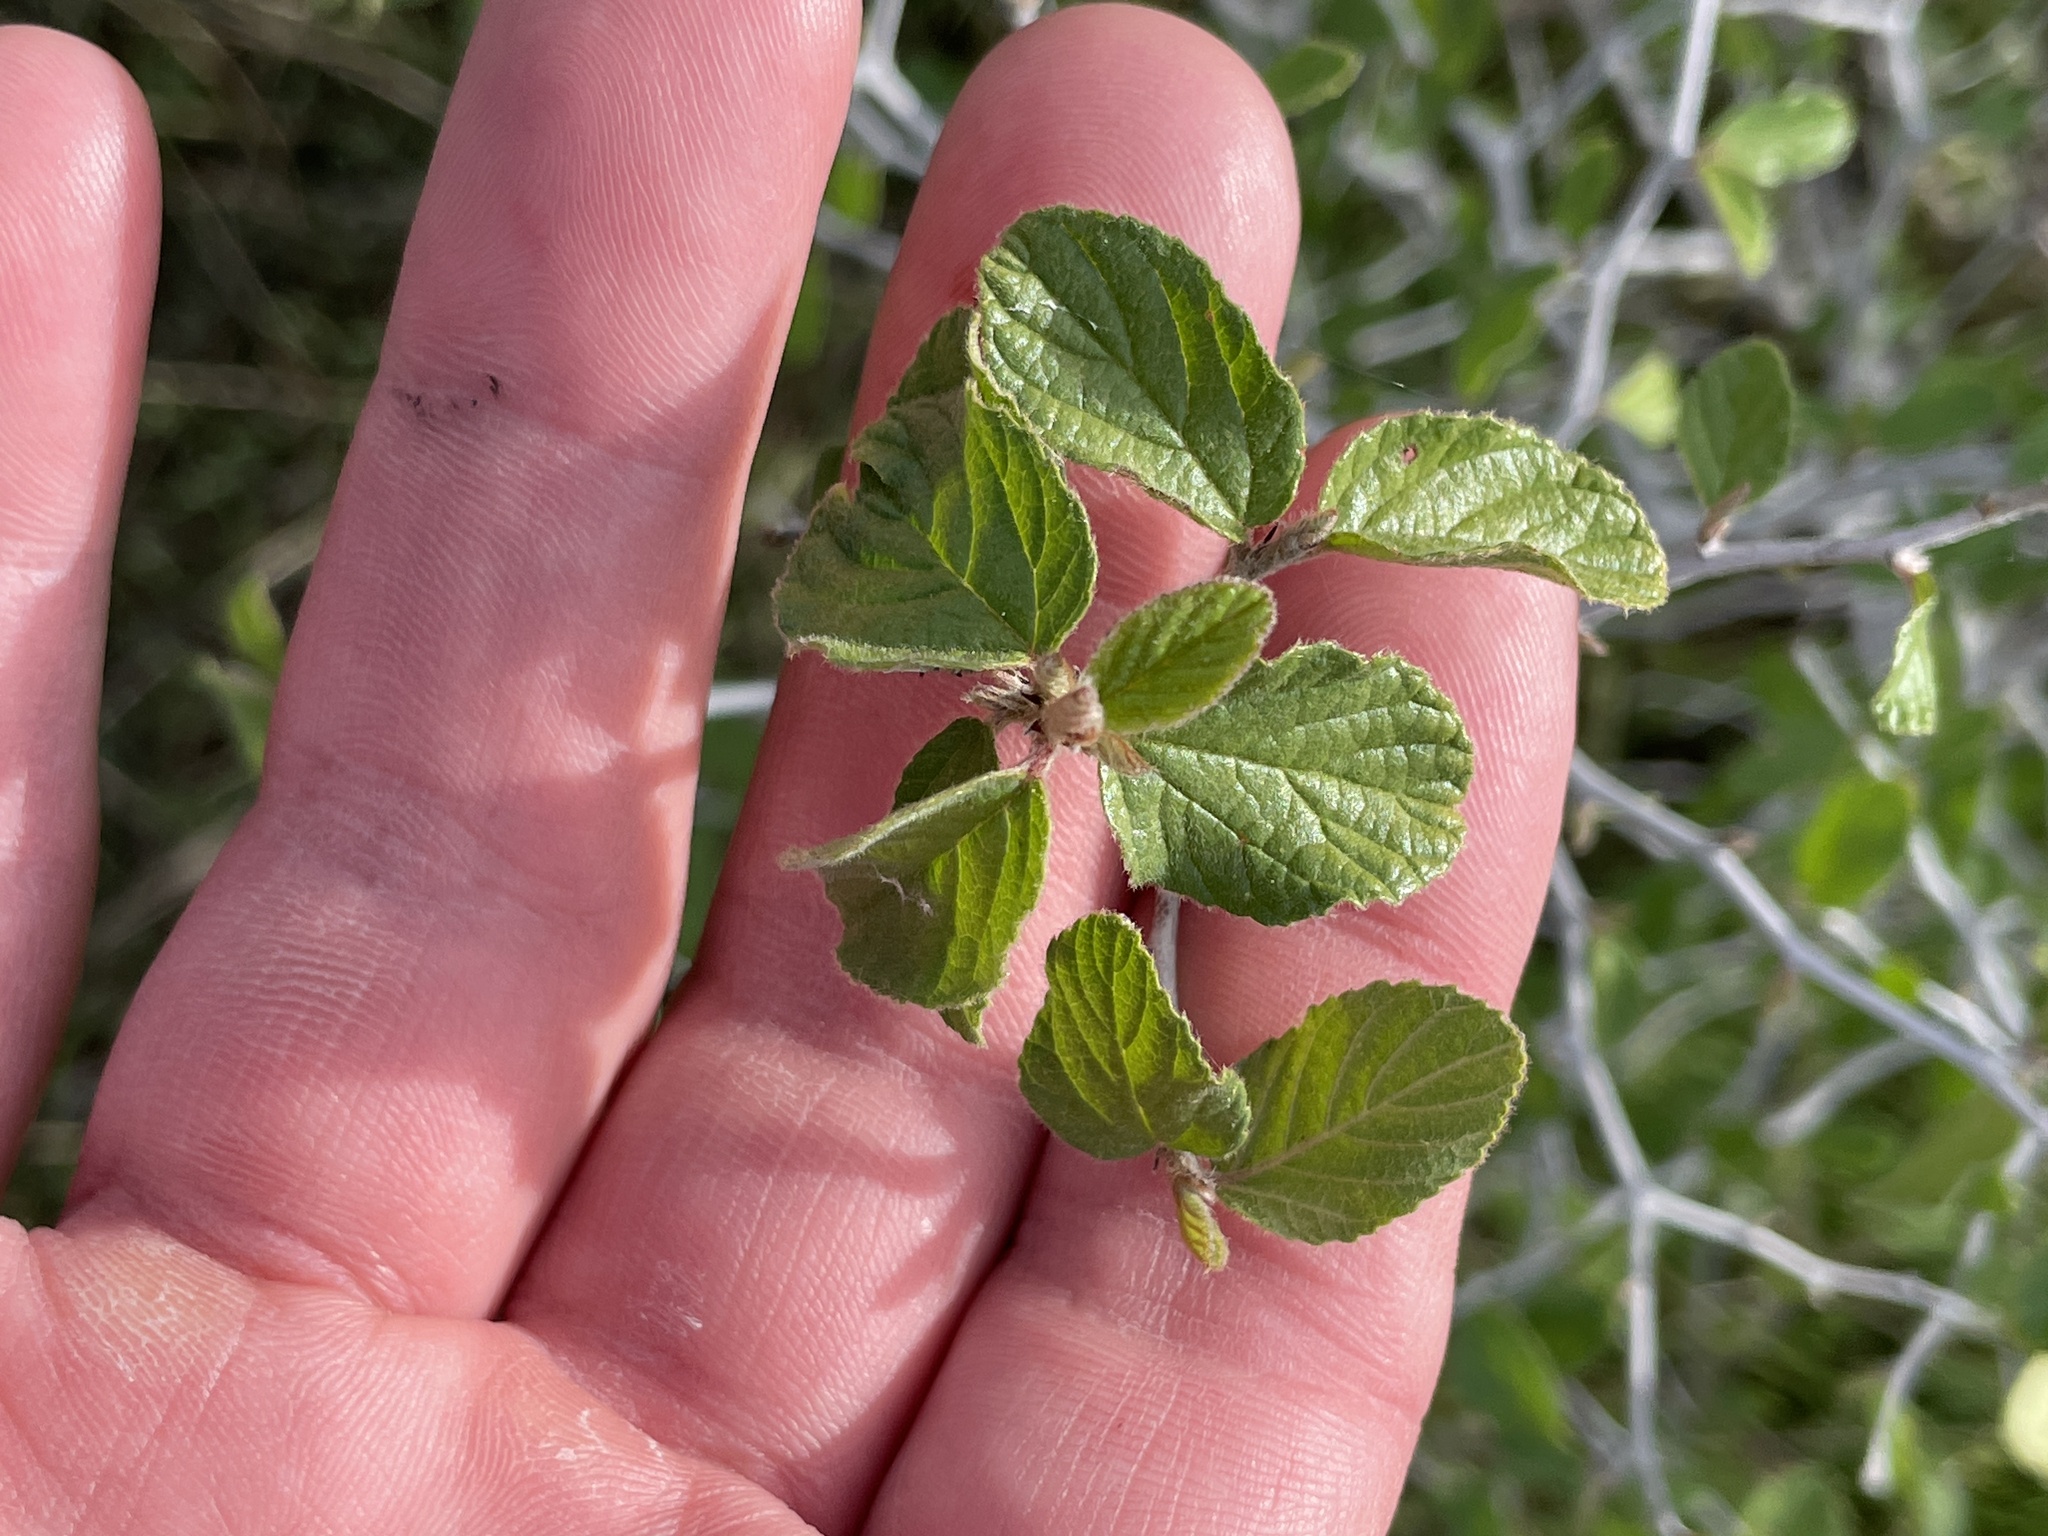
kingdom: Plantae
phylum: Tracheophyta
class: Magnoliopsida
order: Rosales
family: Rhamnaceae
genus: Colubrina
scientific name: Colubrina texensis
